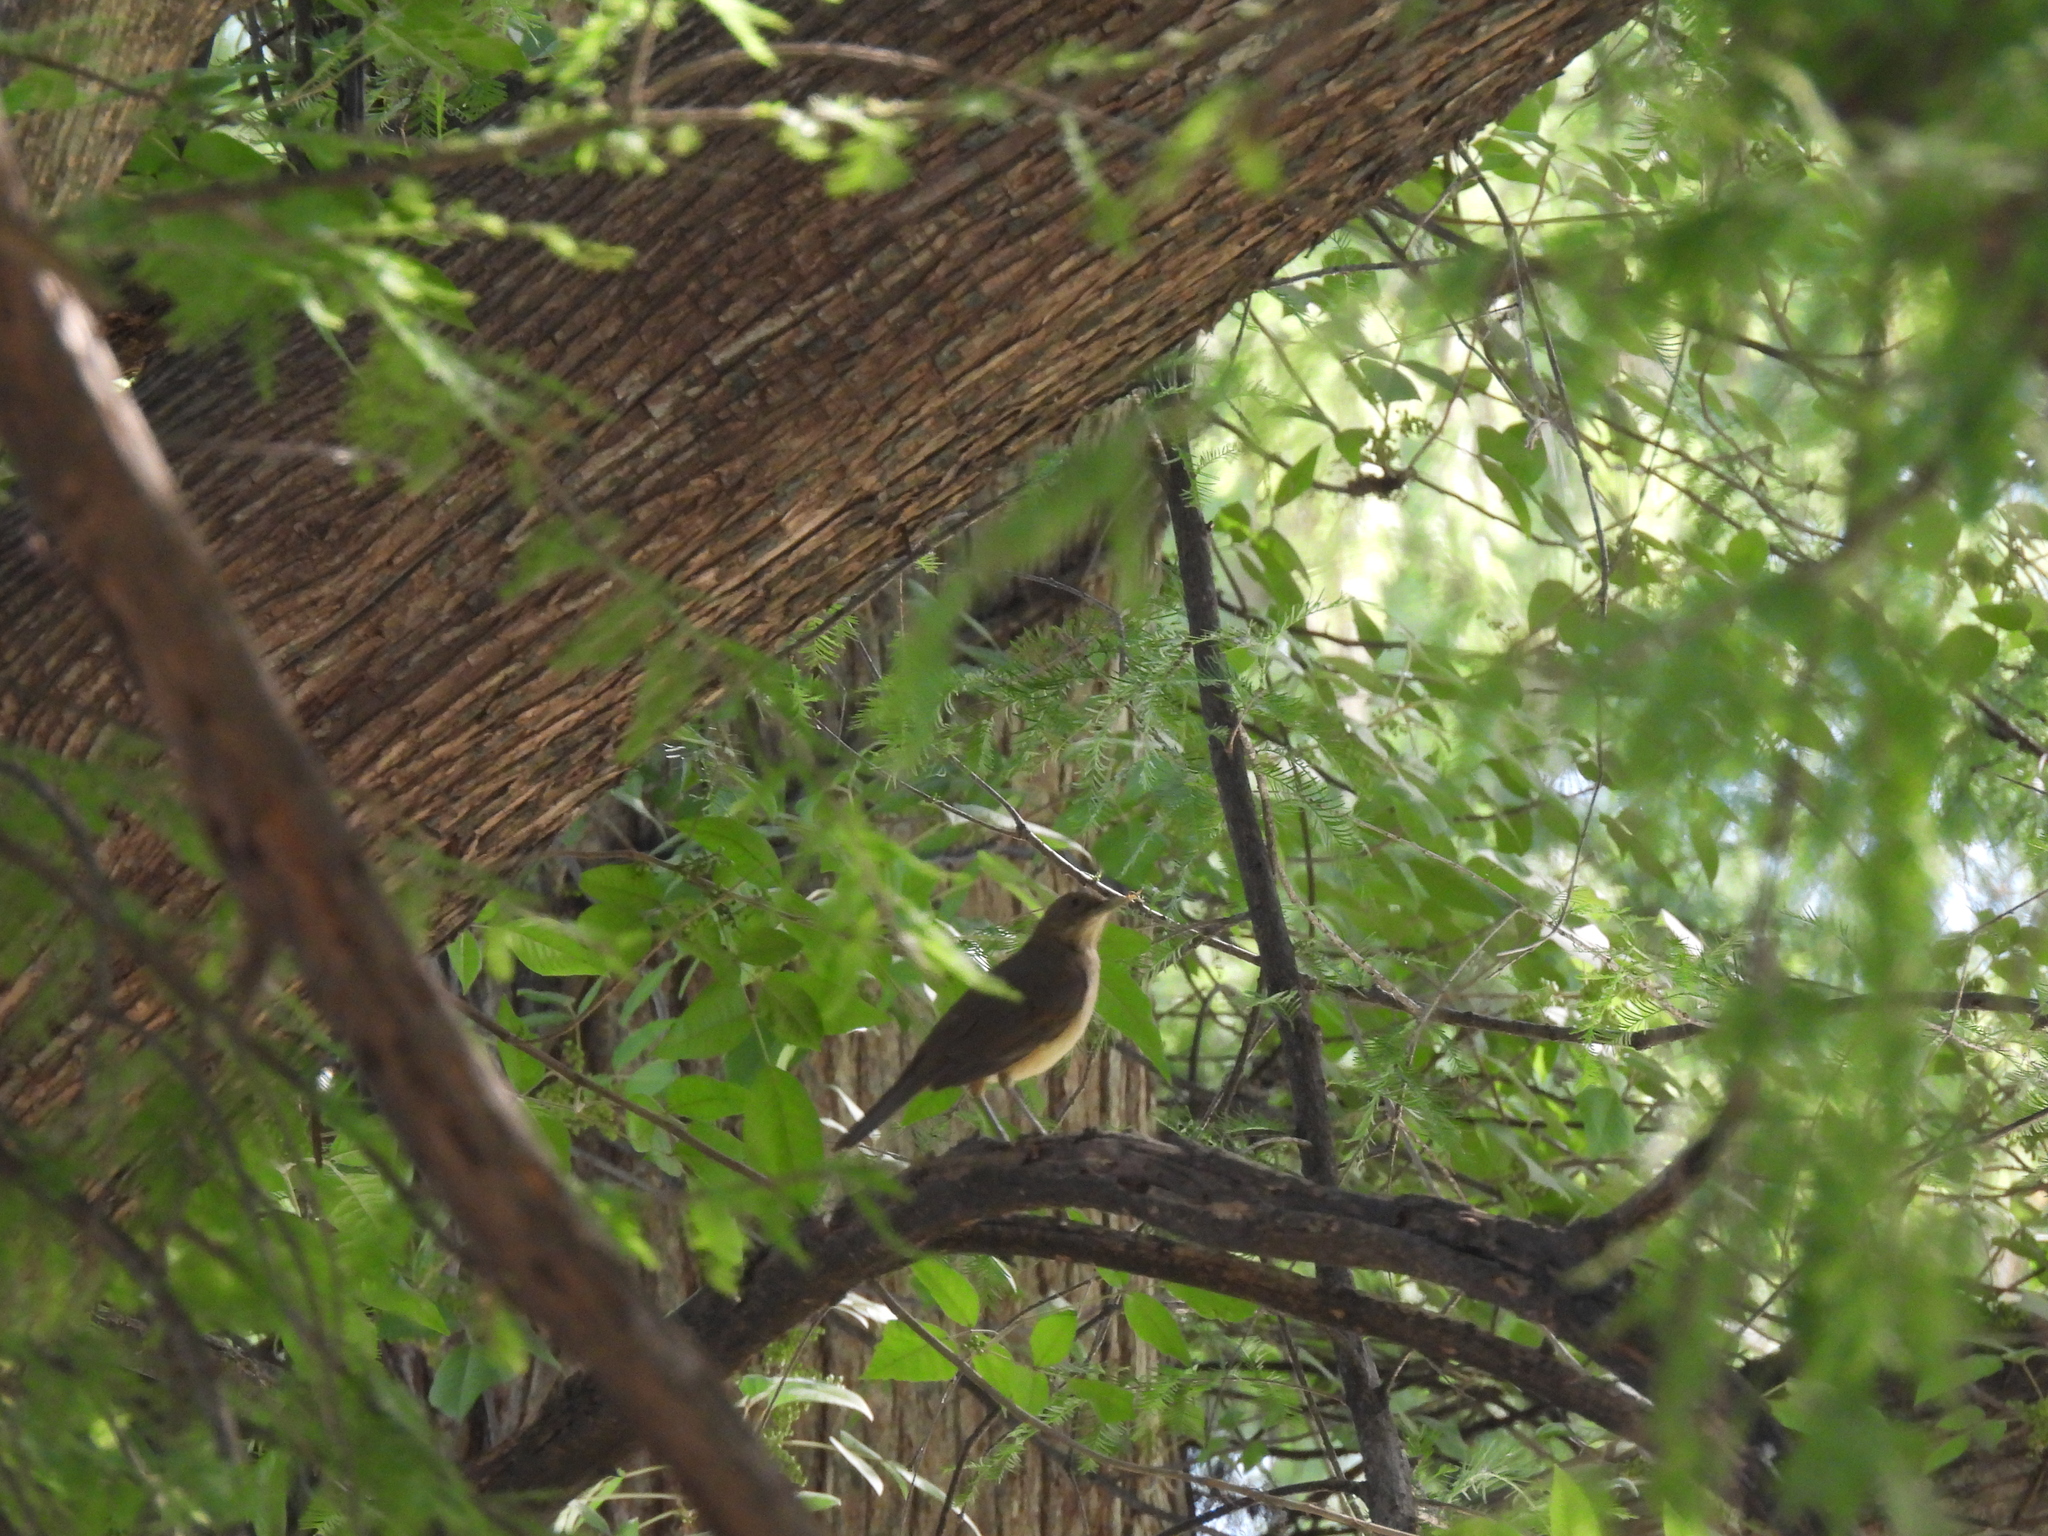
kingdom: Animalia
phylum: Chordata
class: Aves
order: Passeriformes
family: Turdidae
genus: Turdus
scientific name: Turdus grayi
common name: Clay-colored thrush
